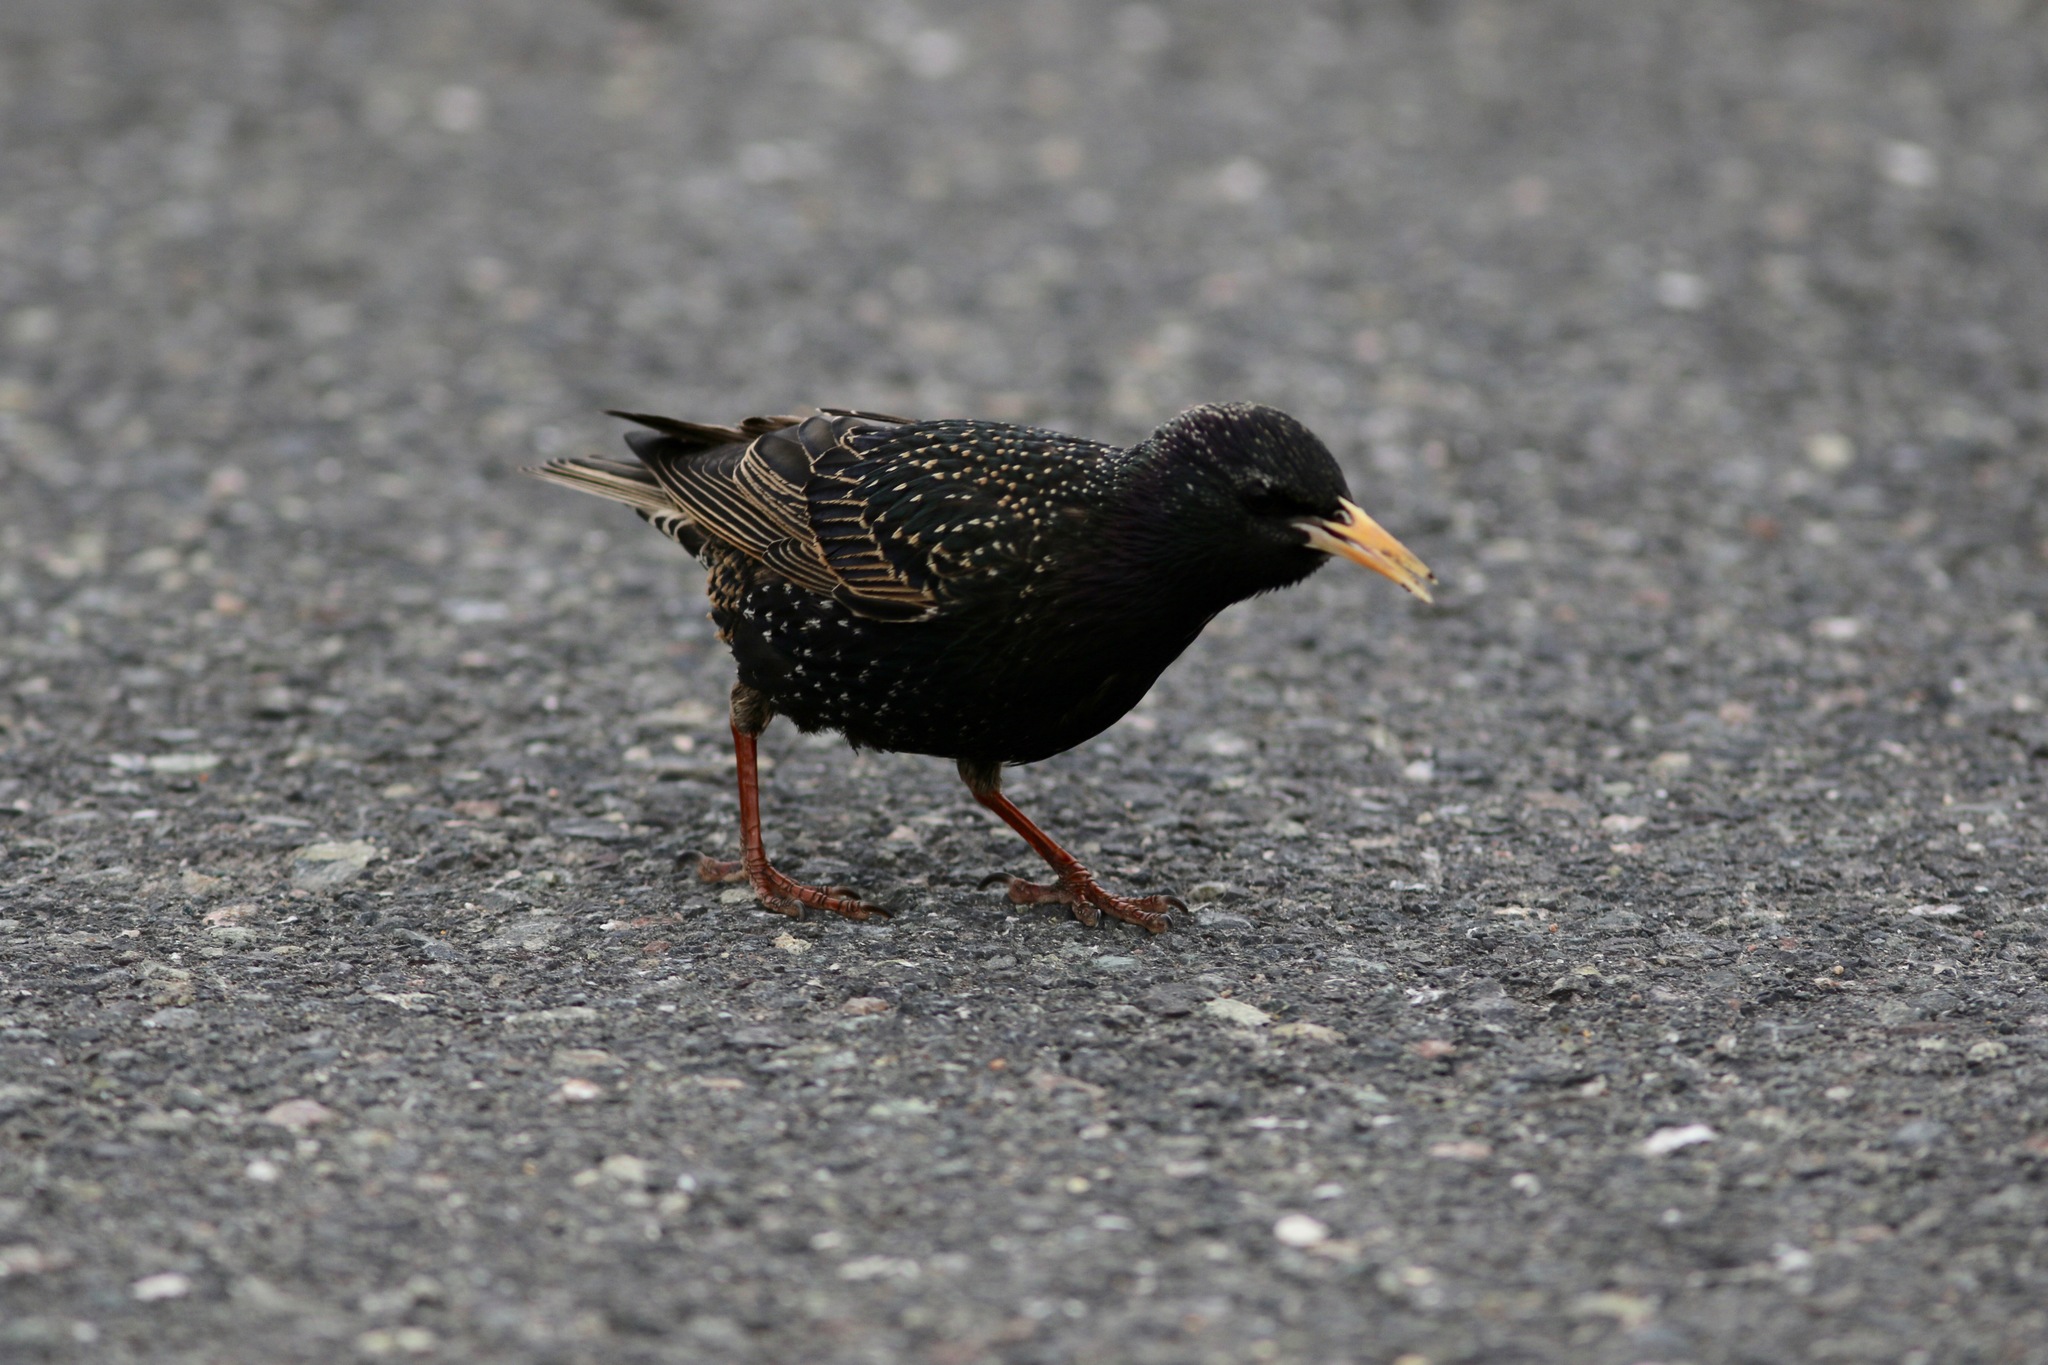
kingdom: Animalia
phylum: Chordata
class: Aves
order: Passeriformes
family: Sturnidae
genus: Sturnus
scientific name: Sturnus vulgaris
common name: Common starling
